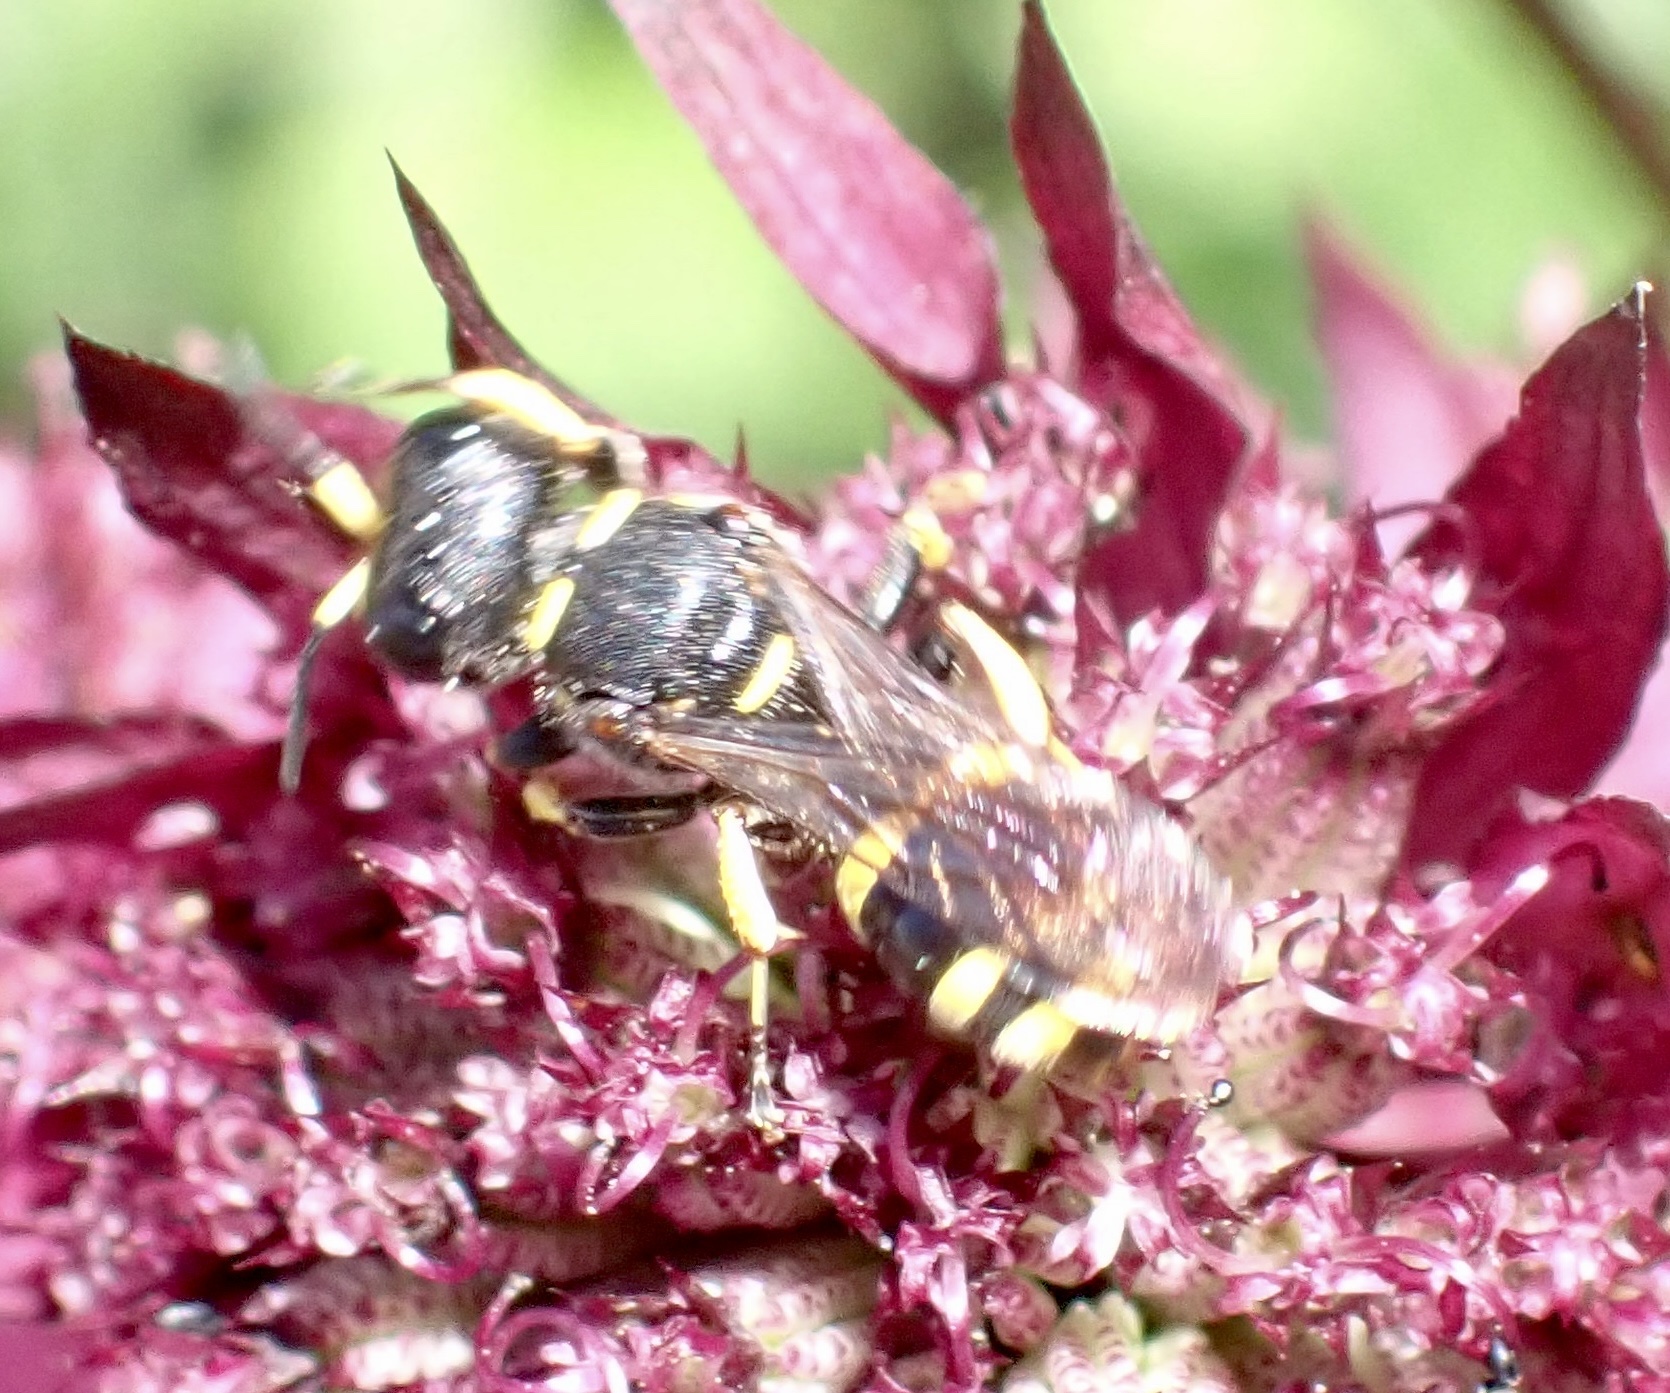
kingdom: Animalia
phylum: Arthropoda
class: Insecta
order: Hymenoptera
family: Crabronidae
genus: Ectemnius
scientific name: Ectemnius continuus
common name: Common ectemnius
